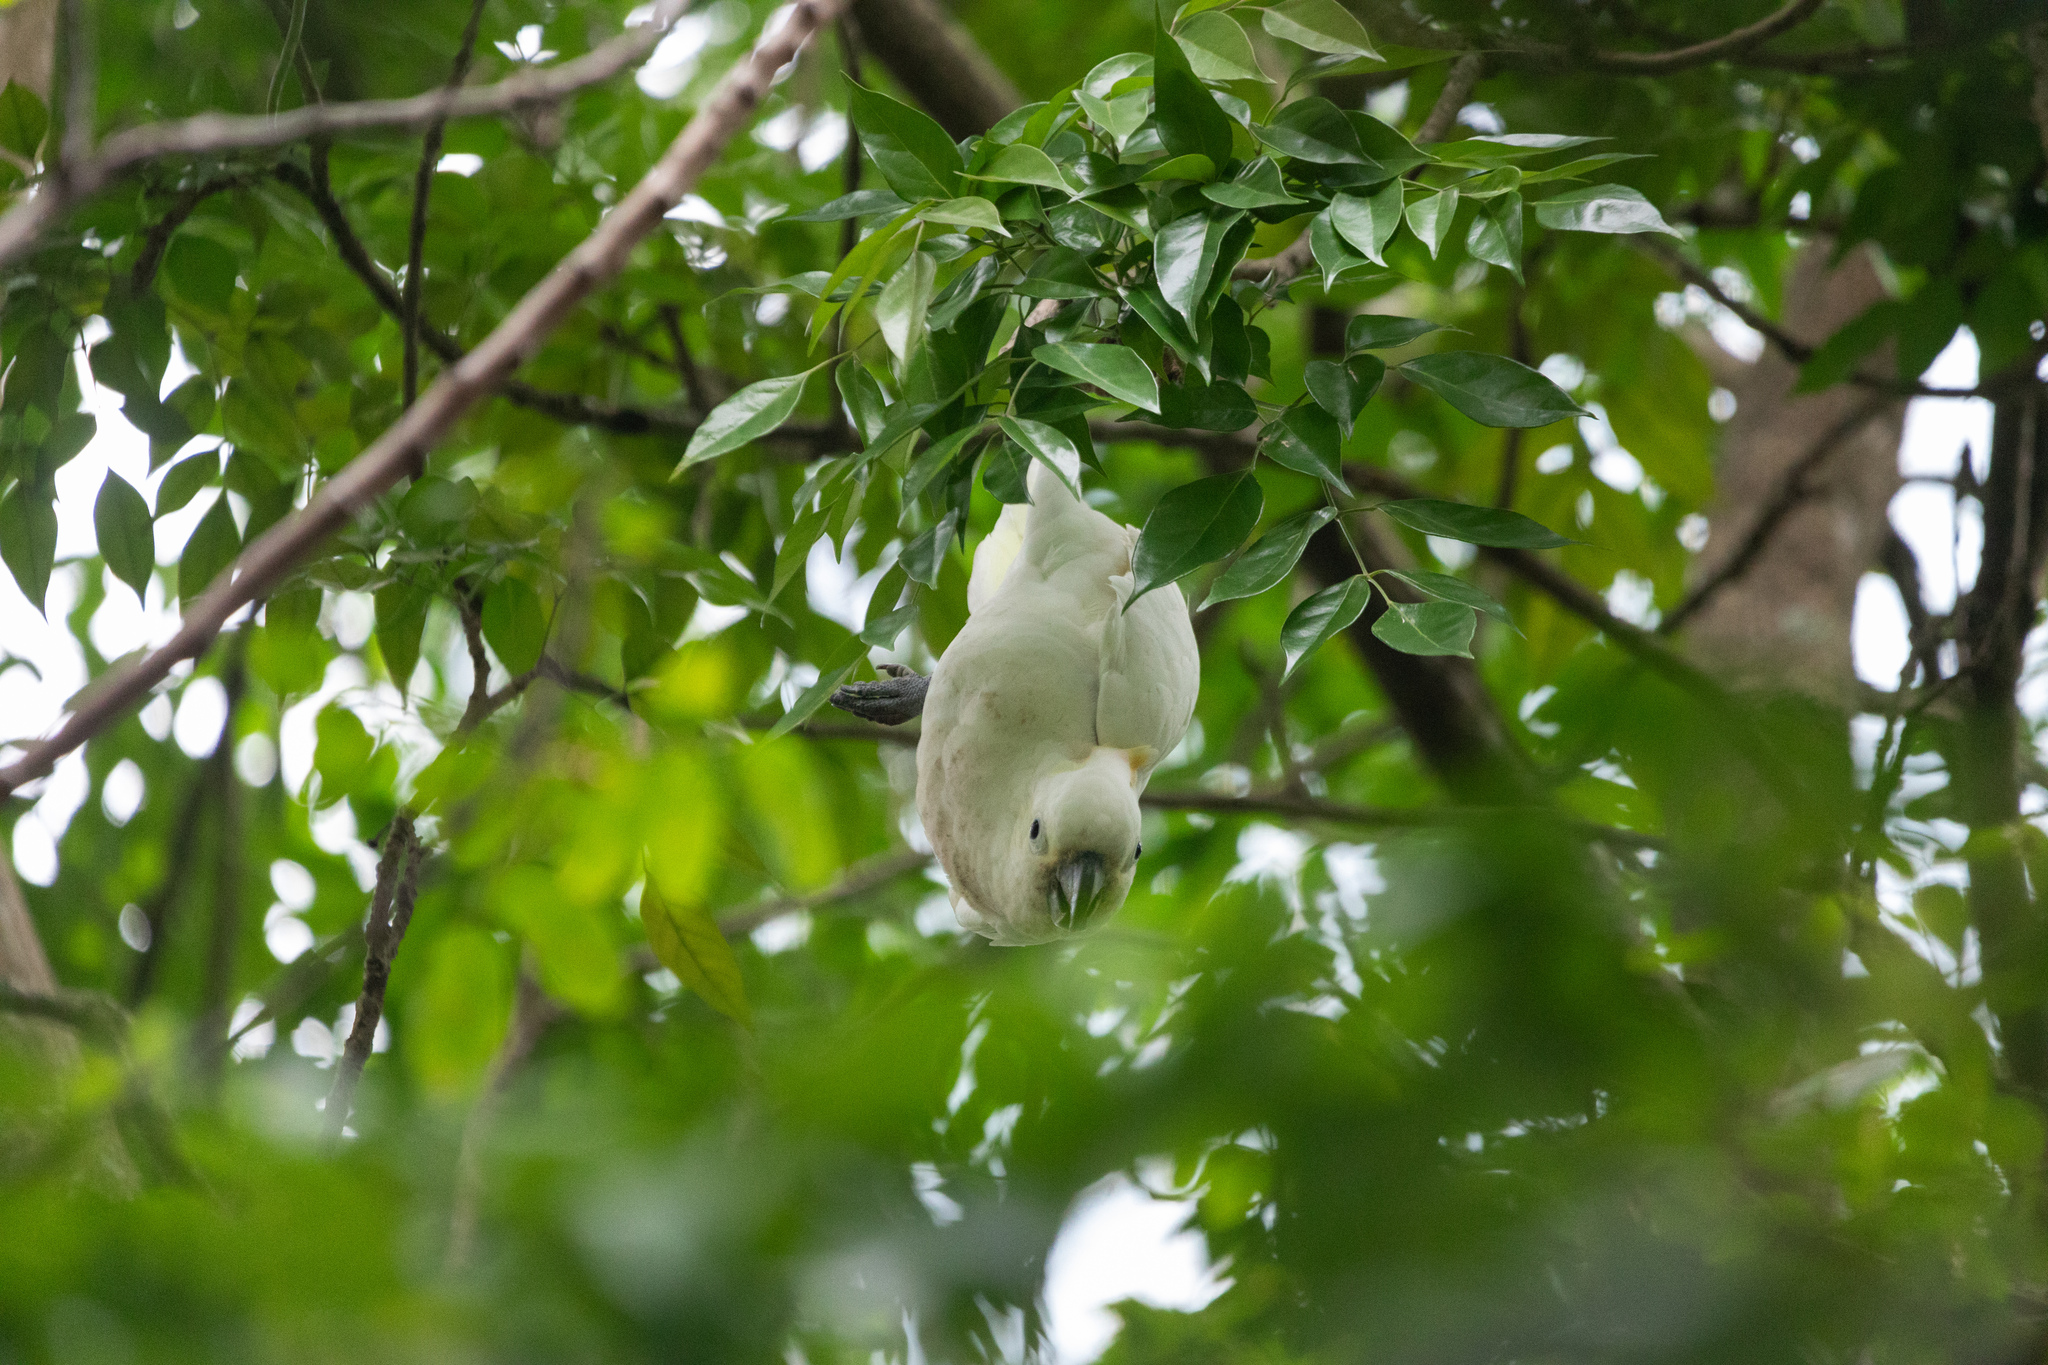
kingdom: Animalia
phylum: Chordata
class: Aves
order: Psittaciformes
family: Psittacidae
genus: Cacatua
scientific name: Cacatua sulphurea
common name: Yellow-crested cockatoo
